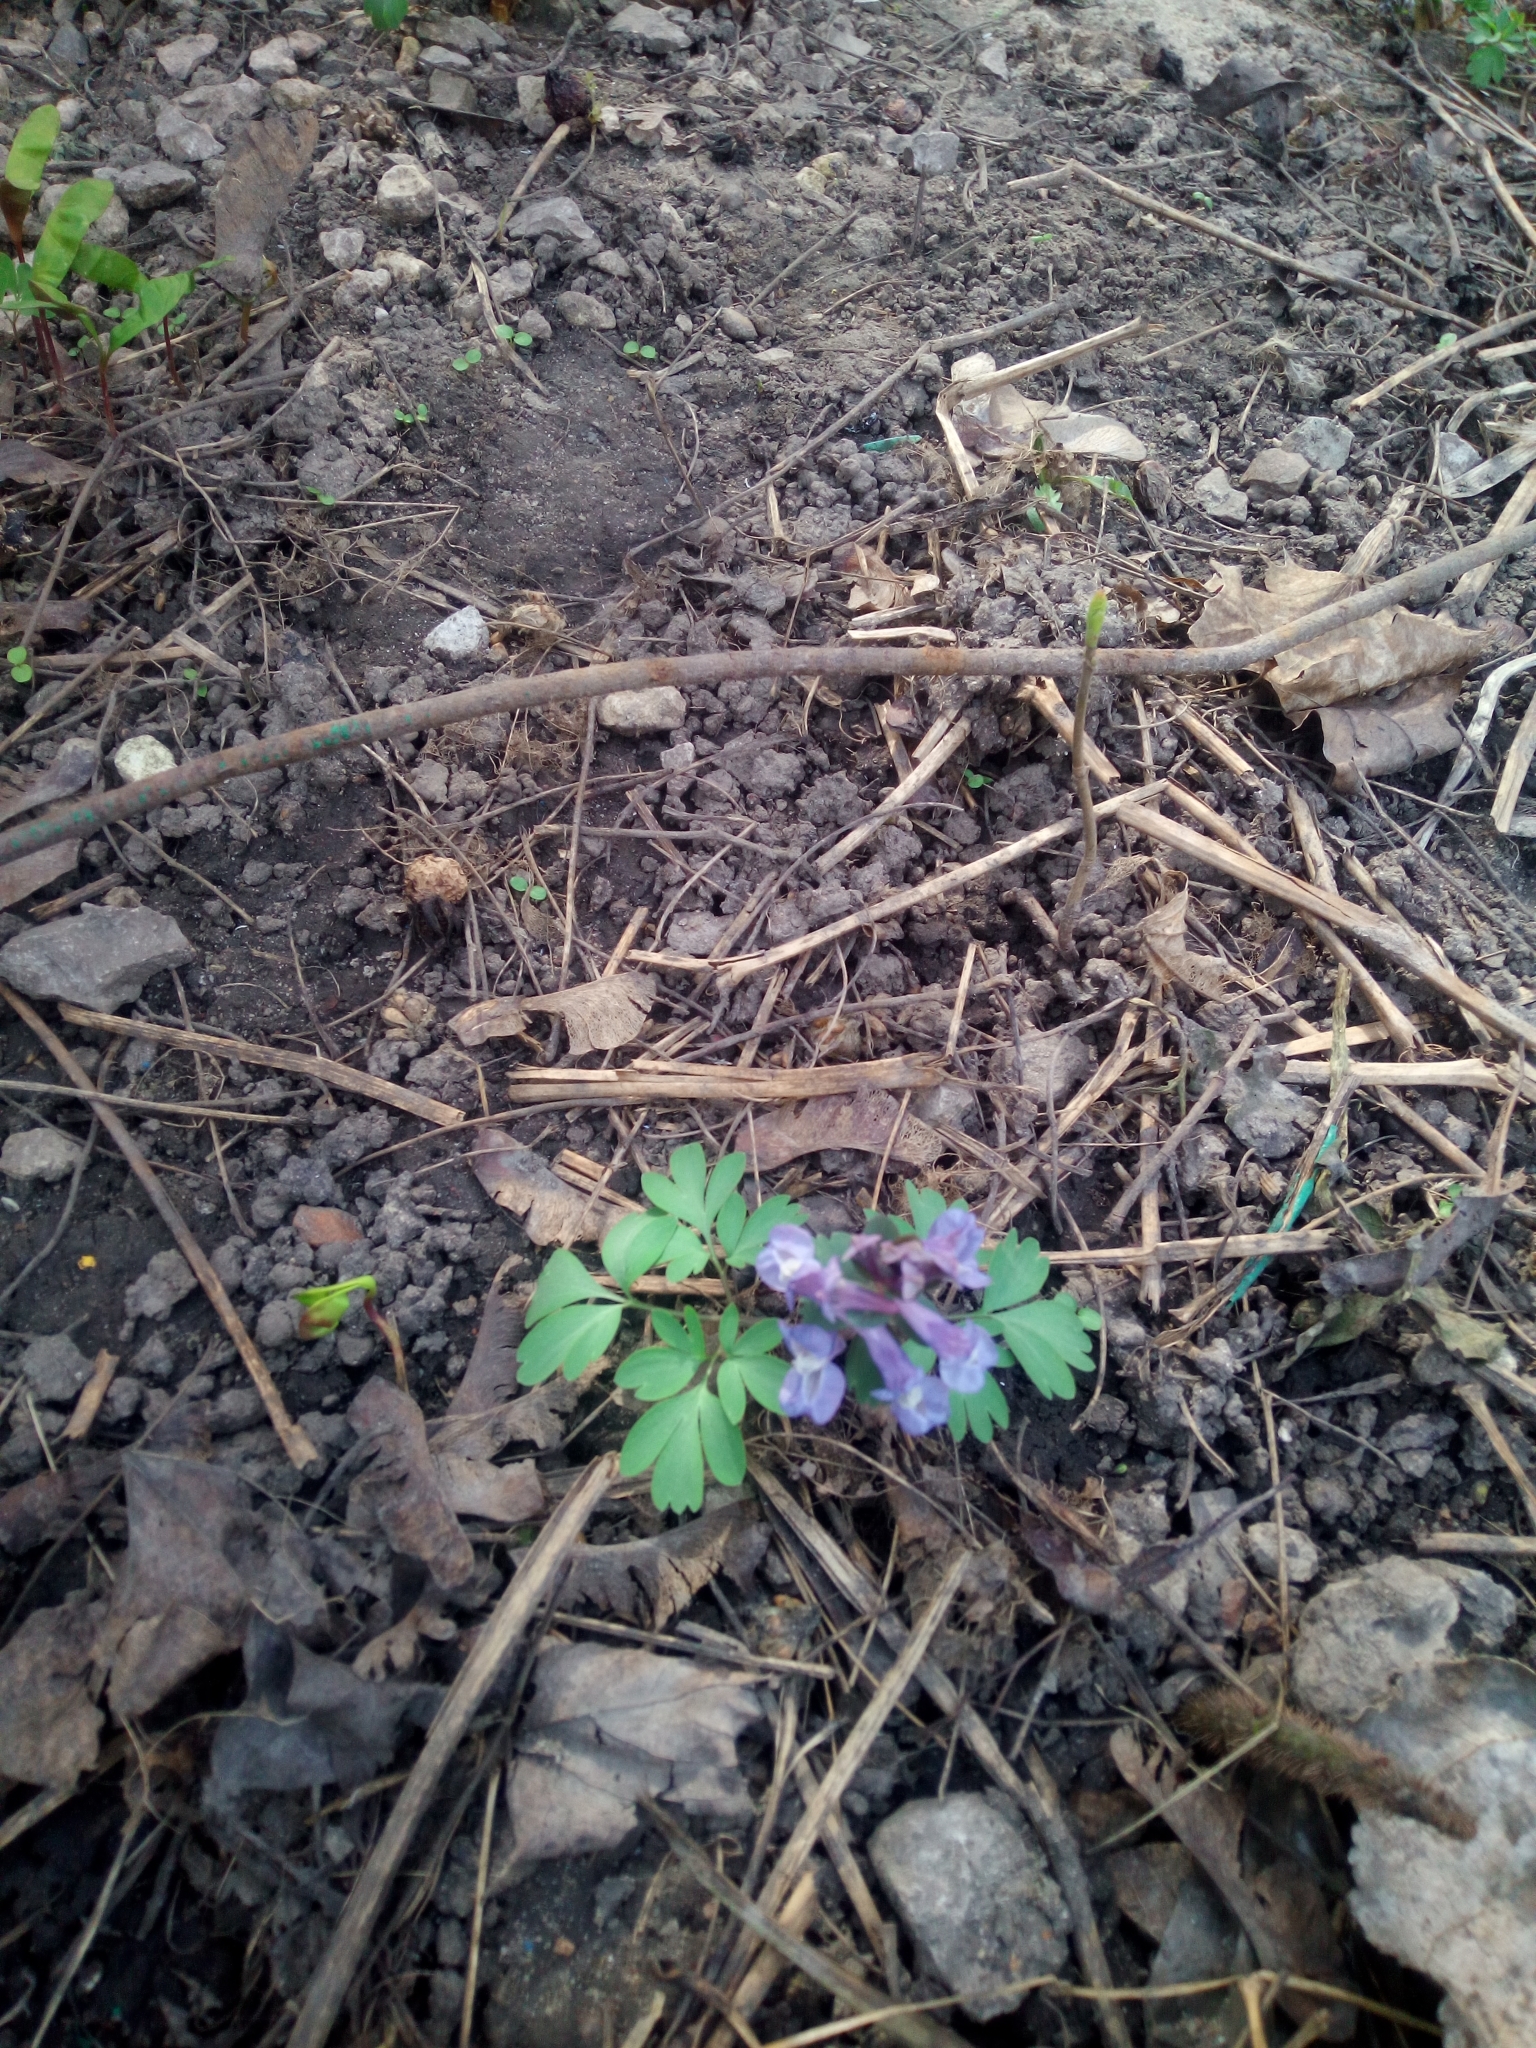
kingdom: Plantae
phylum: Tracheophyta
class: Magnoliopsida
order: Ranunculales
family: Papaveraceae
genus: Corydalis
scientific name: Corydalis solida
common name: Bird-in-a-bush
